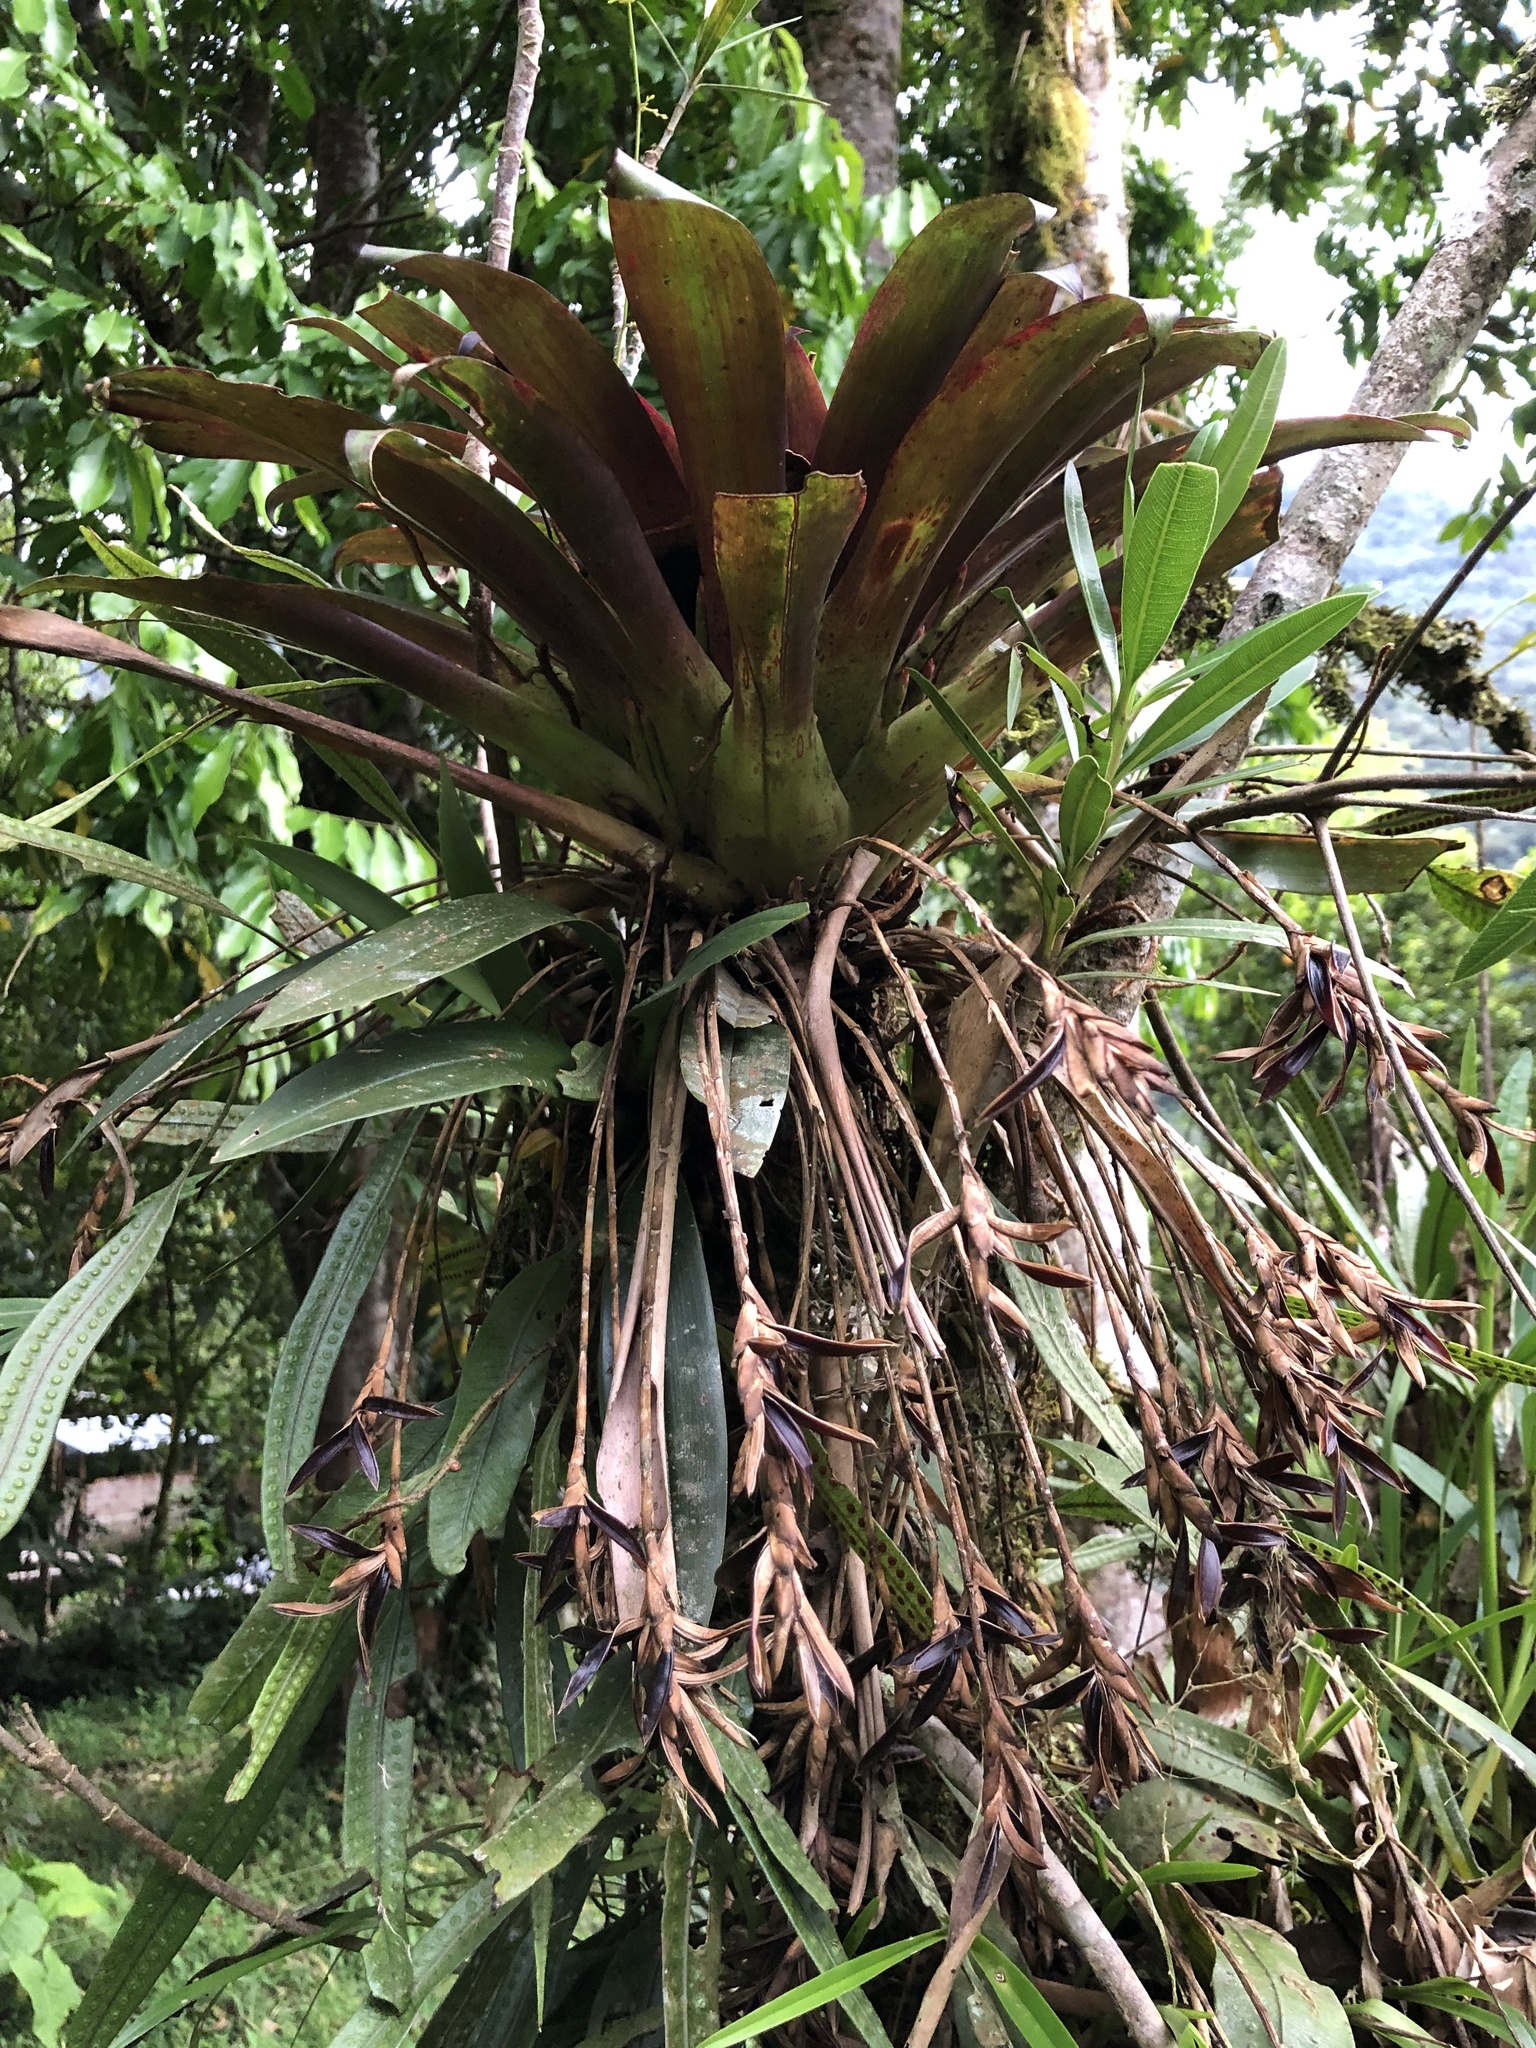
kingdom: Plantae
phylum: Tracheophyta
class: Liliopsida
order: Poales
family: Bromeliaceae
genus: Tillandsia
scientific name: Tillandsia complanata
